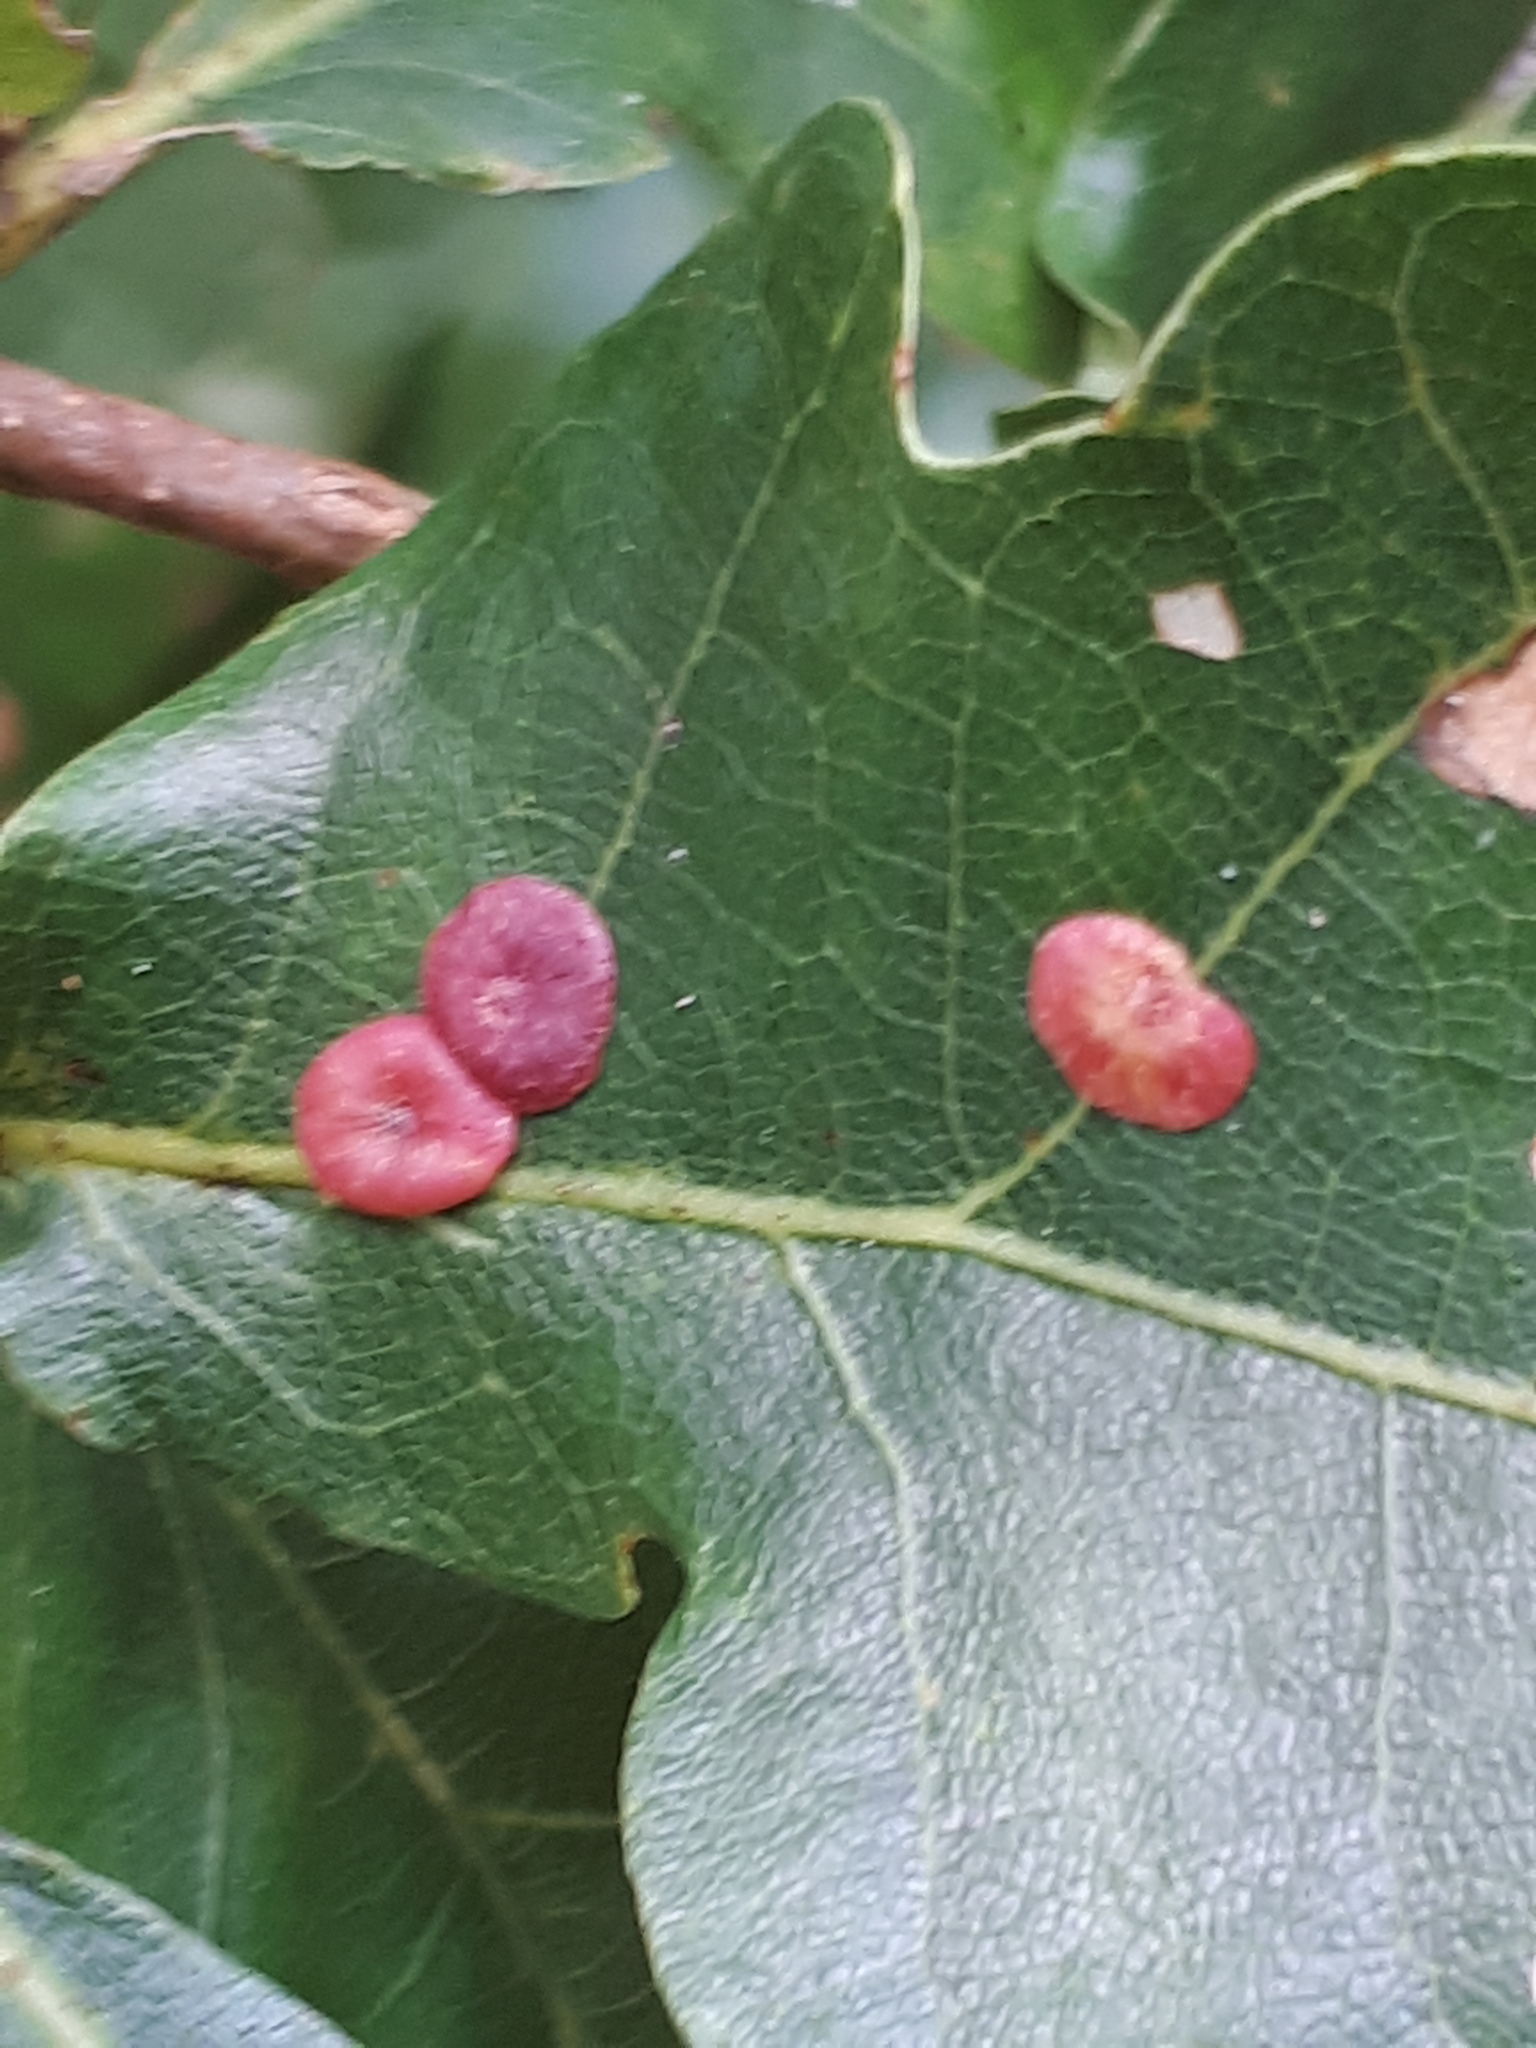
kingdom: Animalia
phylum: Arthropoda
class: Insecta
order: Hymenoptera
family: Cynipidae
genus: Neuroterus
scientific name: Neuroterus albipes
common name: Smooth spangle gall
